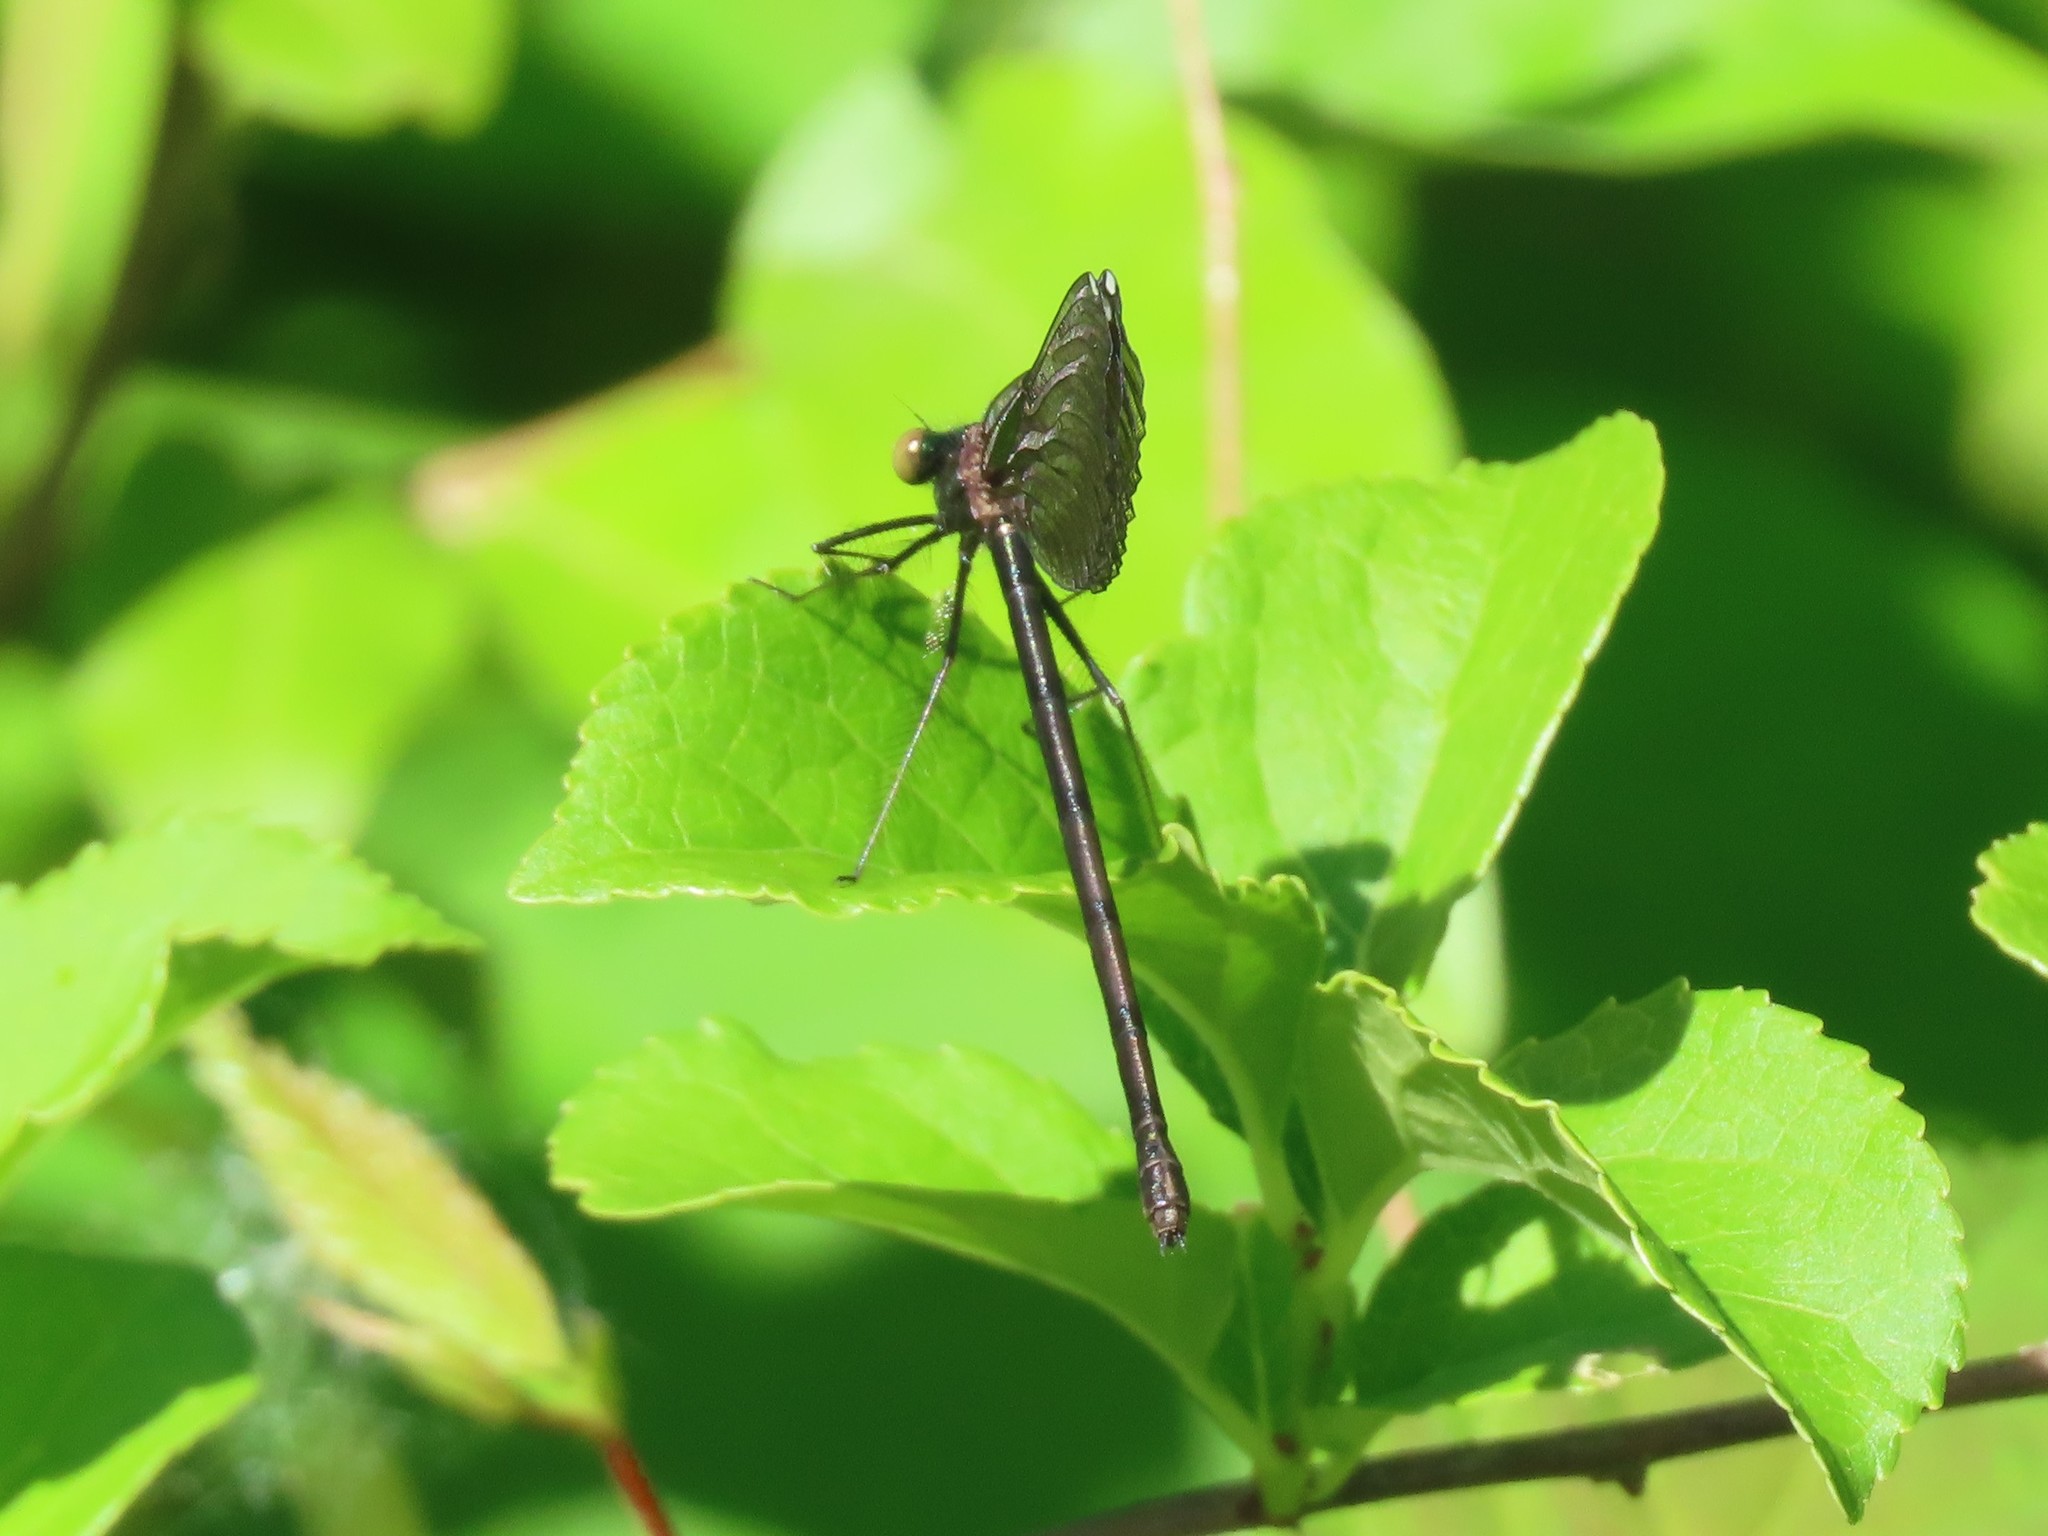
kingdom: Animalia
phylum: Arthropoda
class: Insecta
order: Odonata
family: Calopterygidae
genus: Calopteryx
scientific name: Calopteryx maculata
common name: Ebony jewelwing
